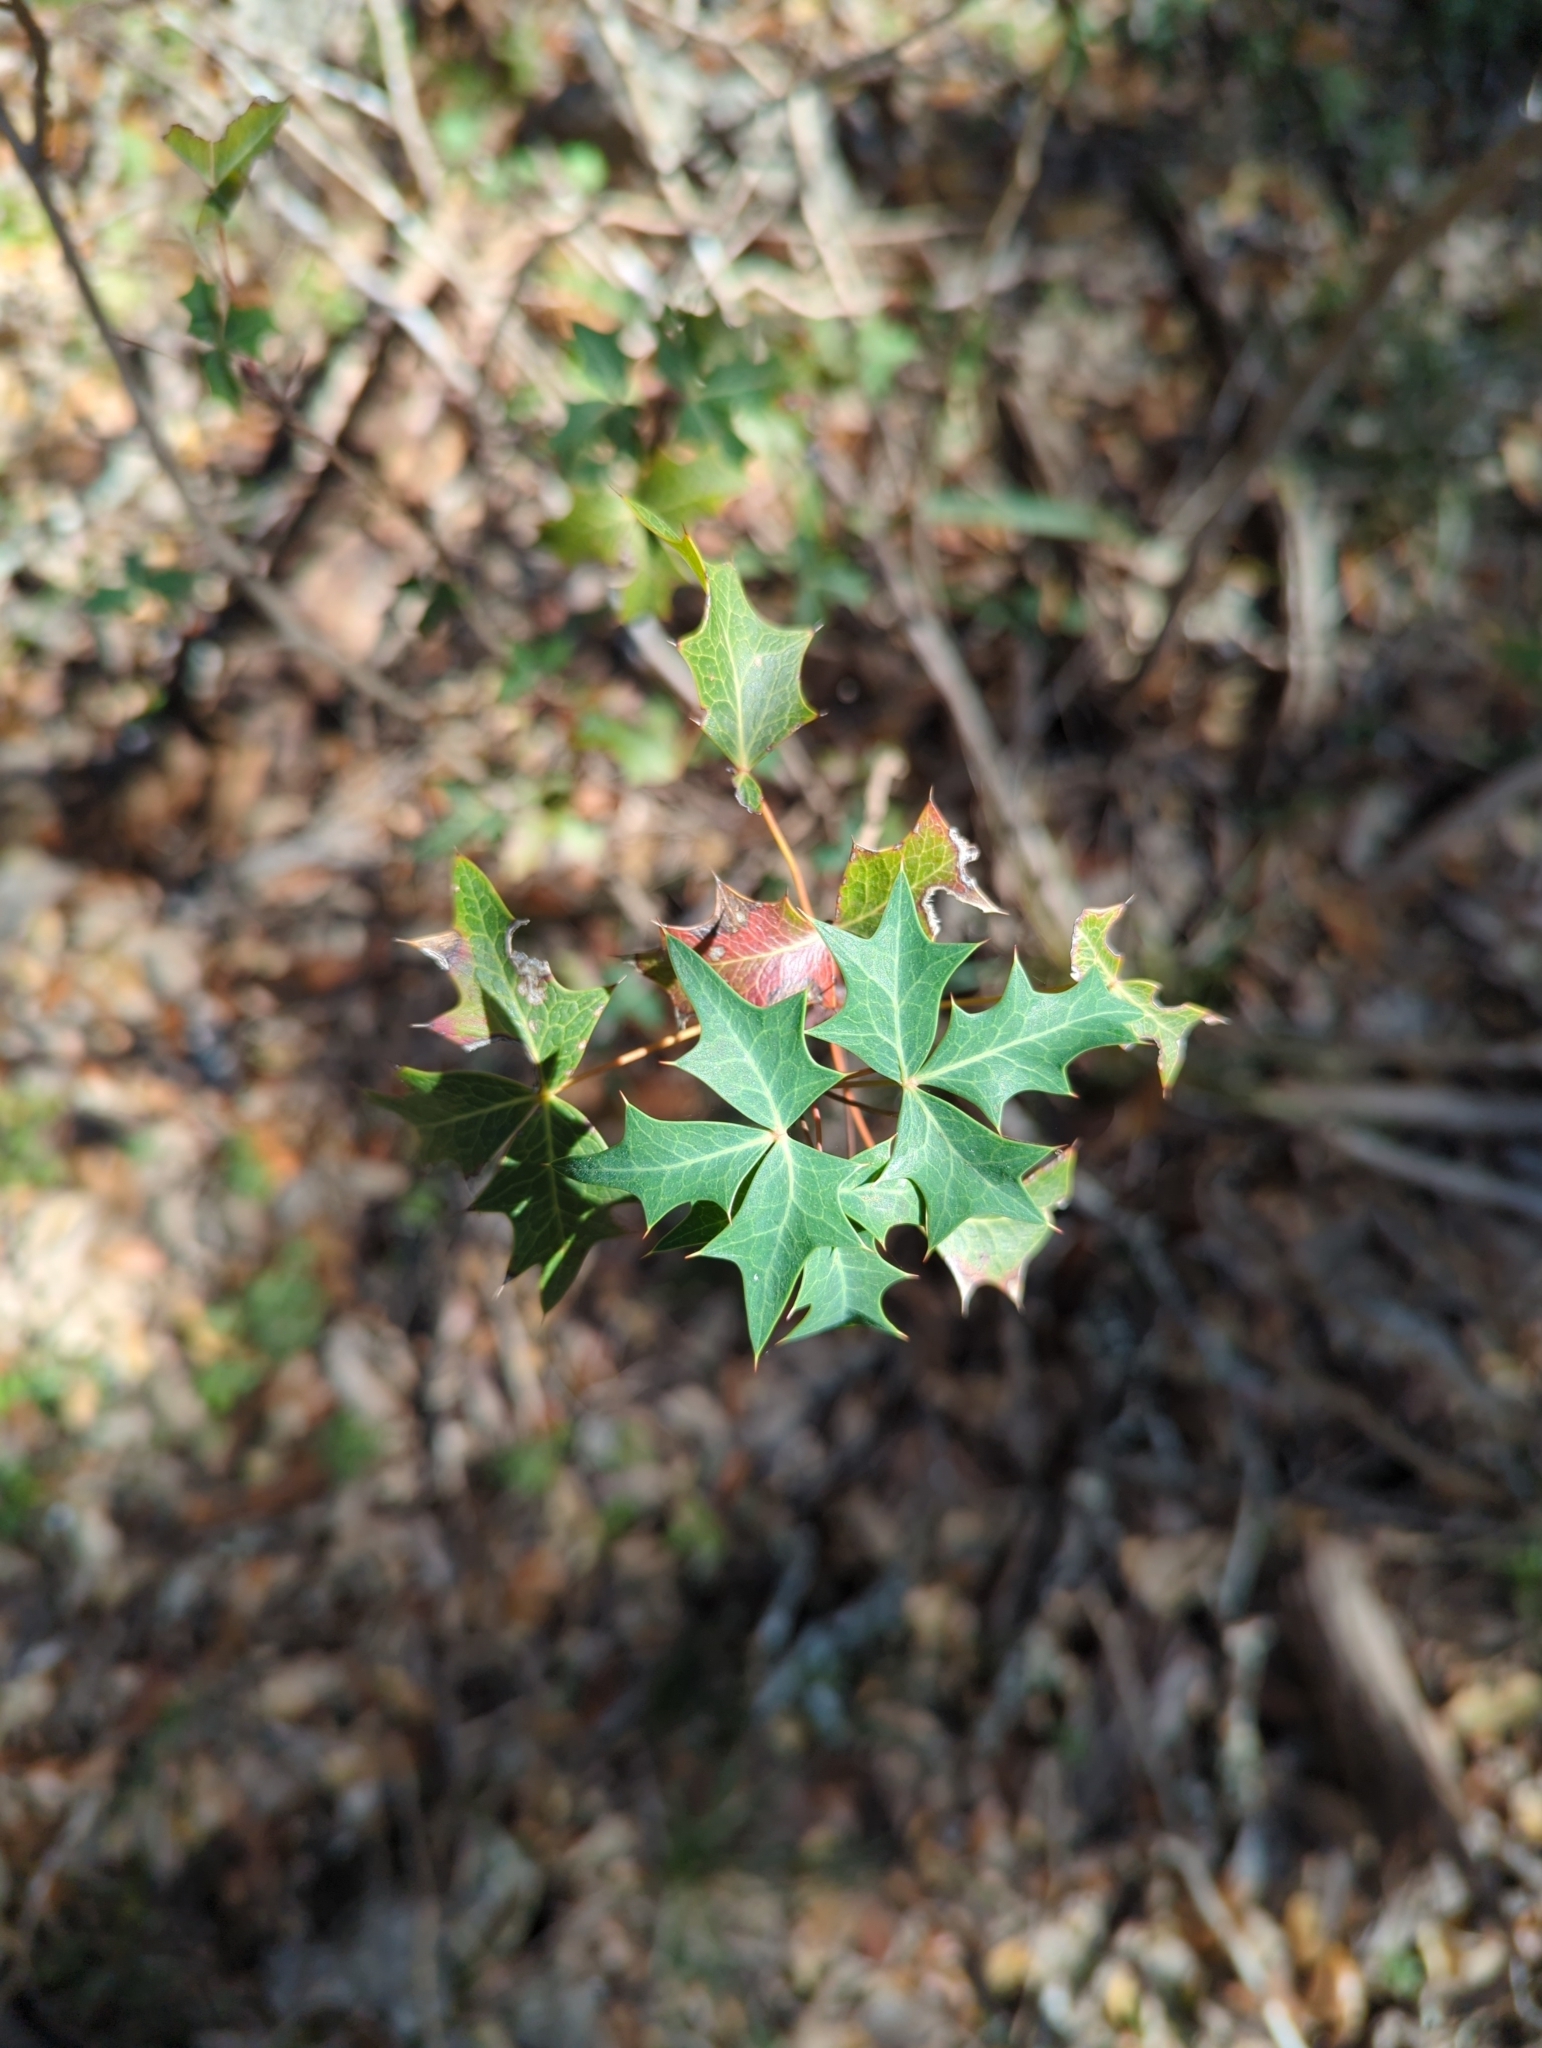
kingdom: Plantae
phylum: Tracheophyta
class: Magnoliopsida
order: Ranunculales
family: Berberidaceae
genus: Alloberberis
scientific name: Alloberberis trifoliolata
